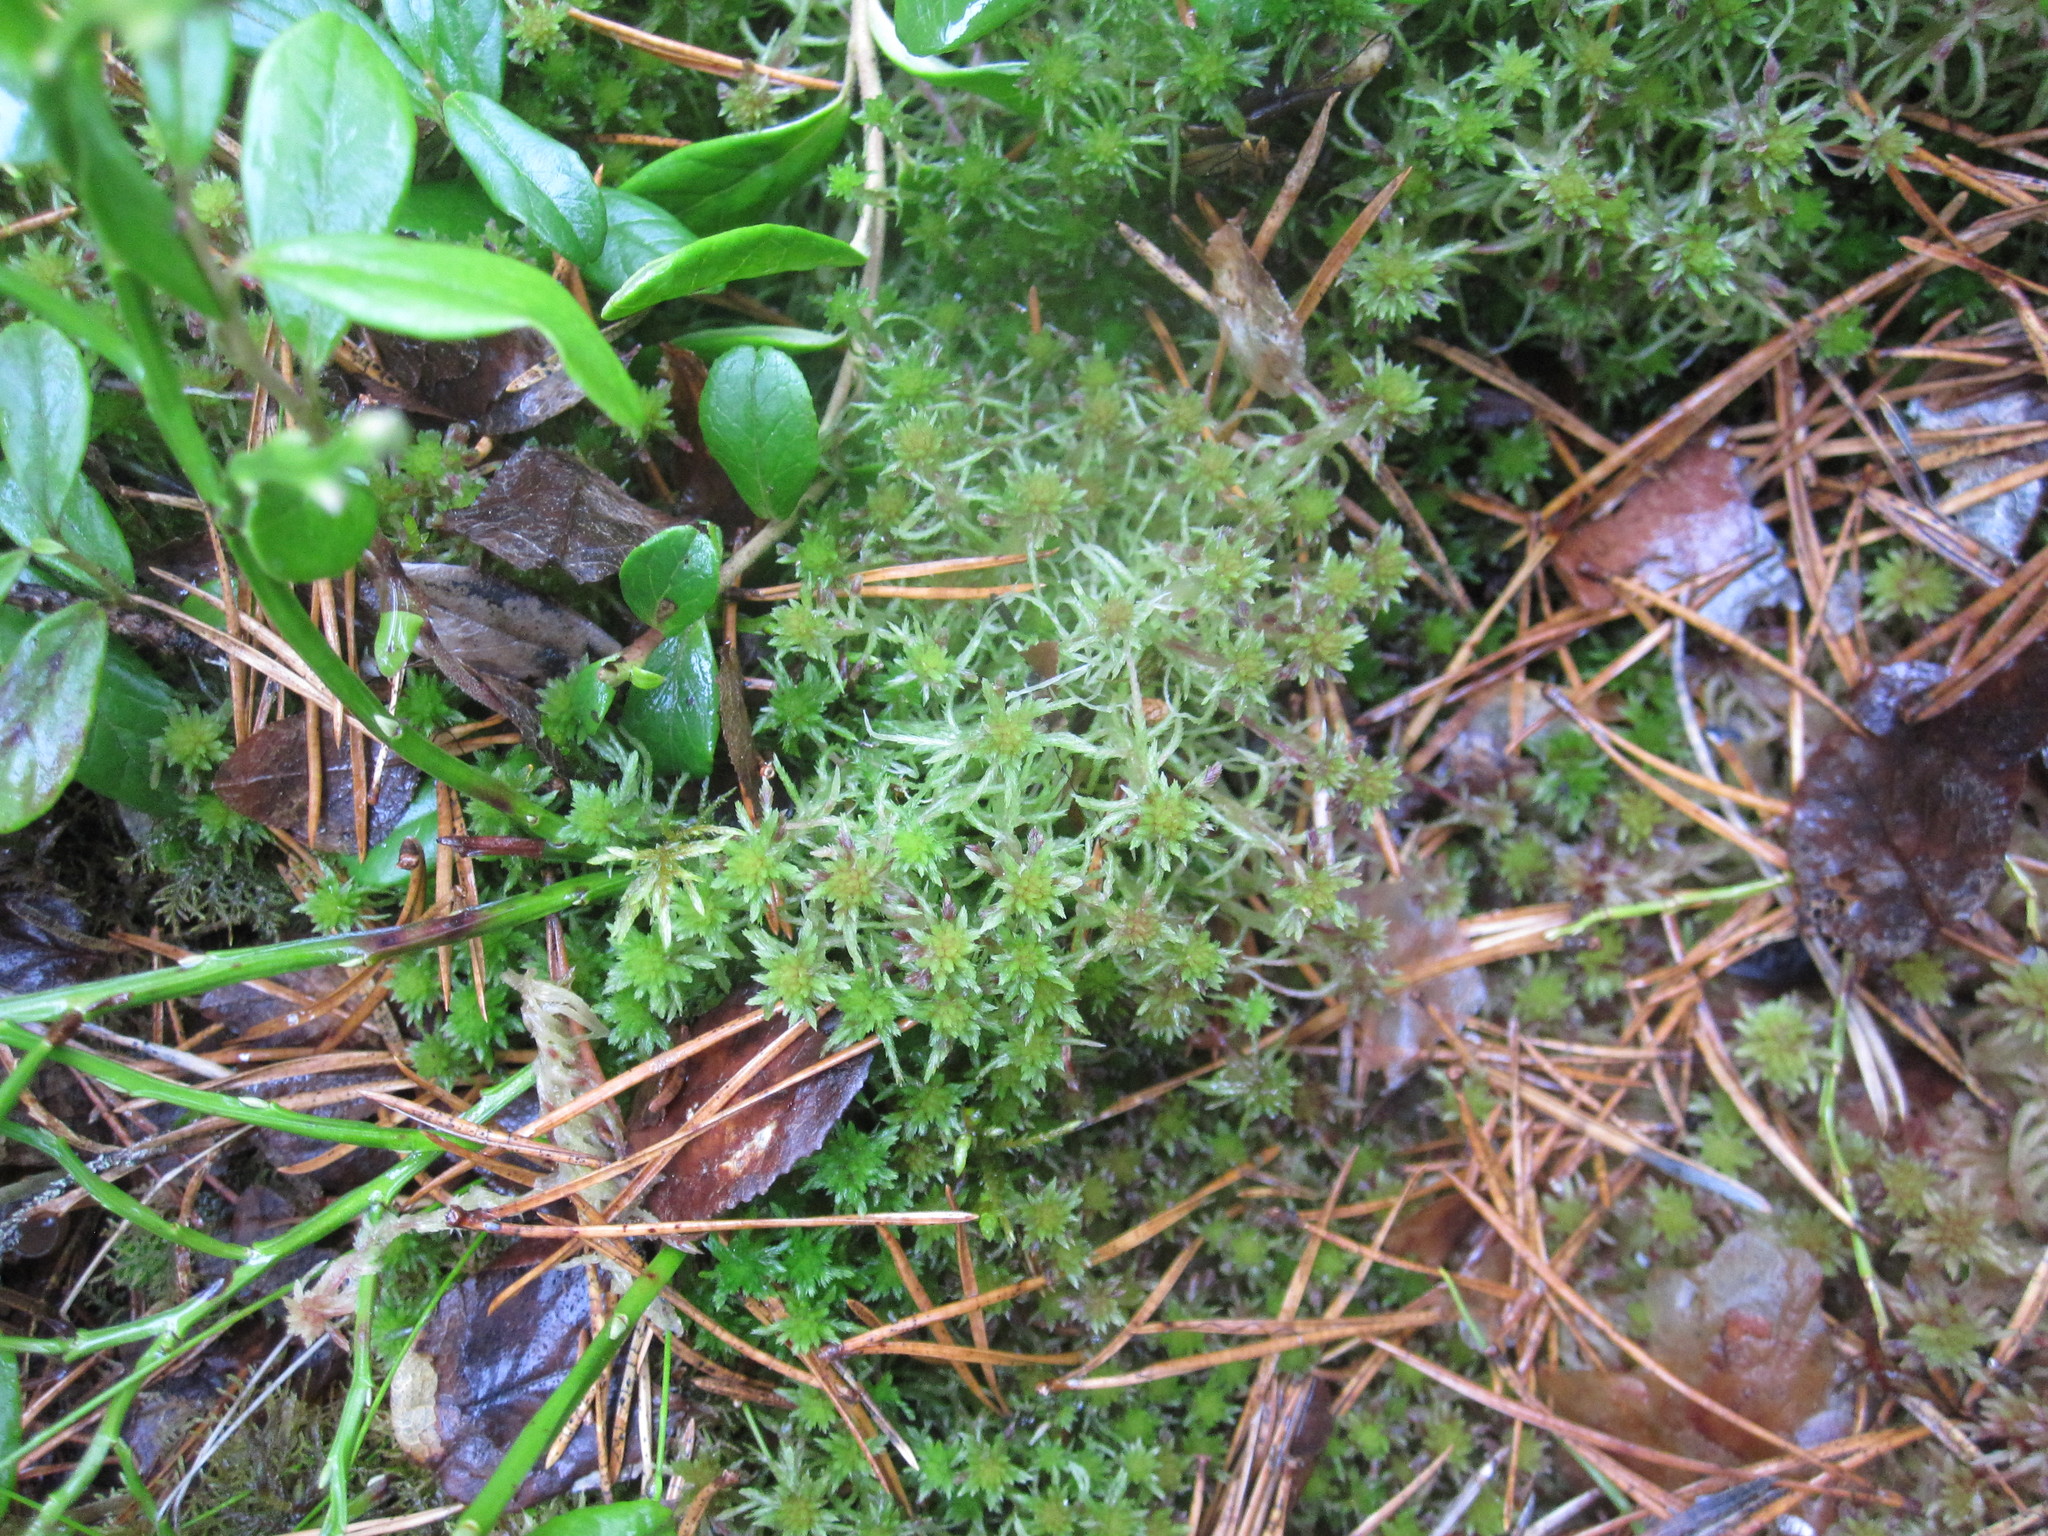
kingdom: Plantae
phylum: Bryophyta
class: Sphagnopsida
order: Sphagnales
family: Sphagnaceae
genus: Sphagnum
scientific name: Sphagnum capillifolium
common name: Small red peat moss
